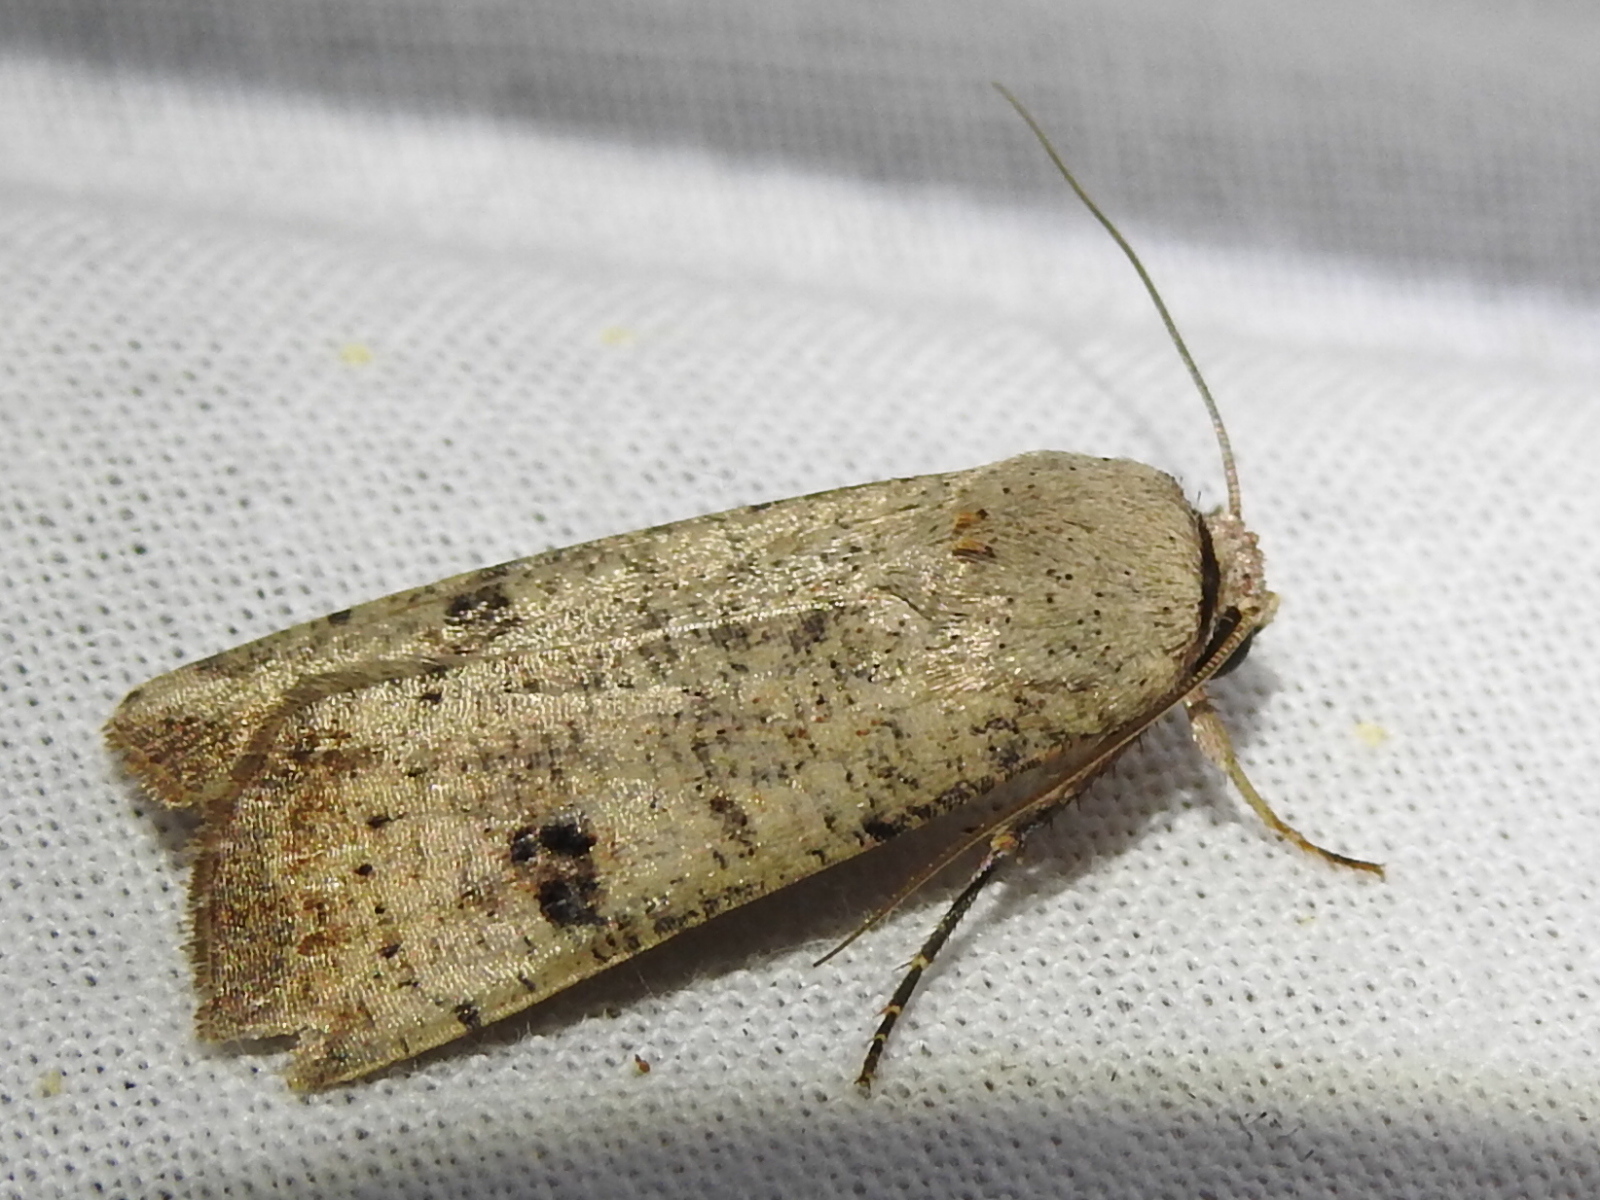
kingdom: Animalia
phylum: Arthropoda
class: Insecta
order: Lepidoptera
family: Noctuidae
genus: Anicla
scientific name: Anicla infecta
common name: Green cutworm
